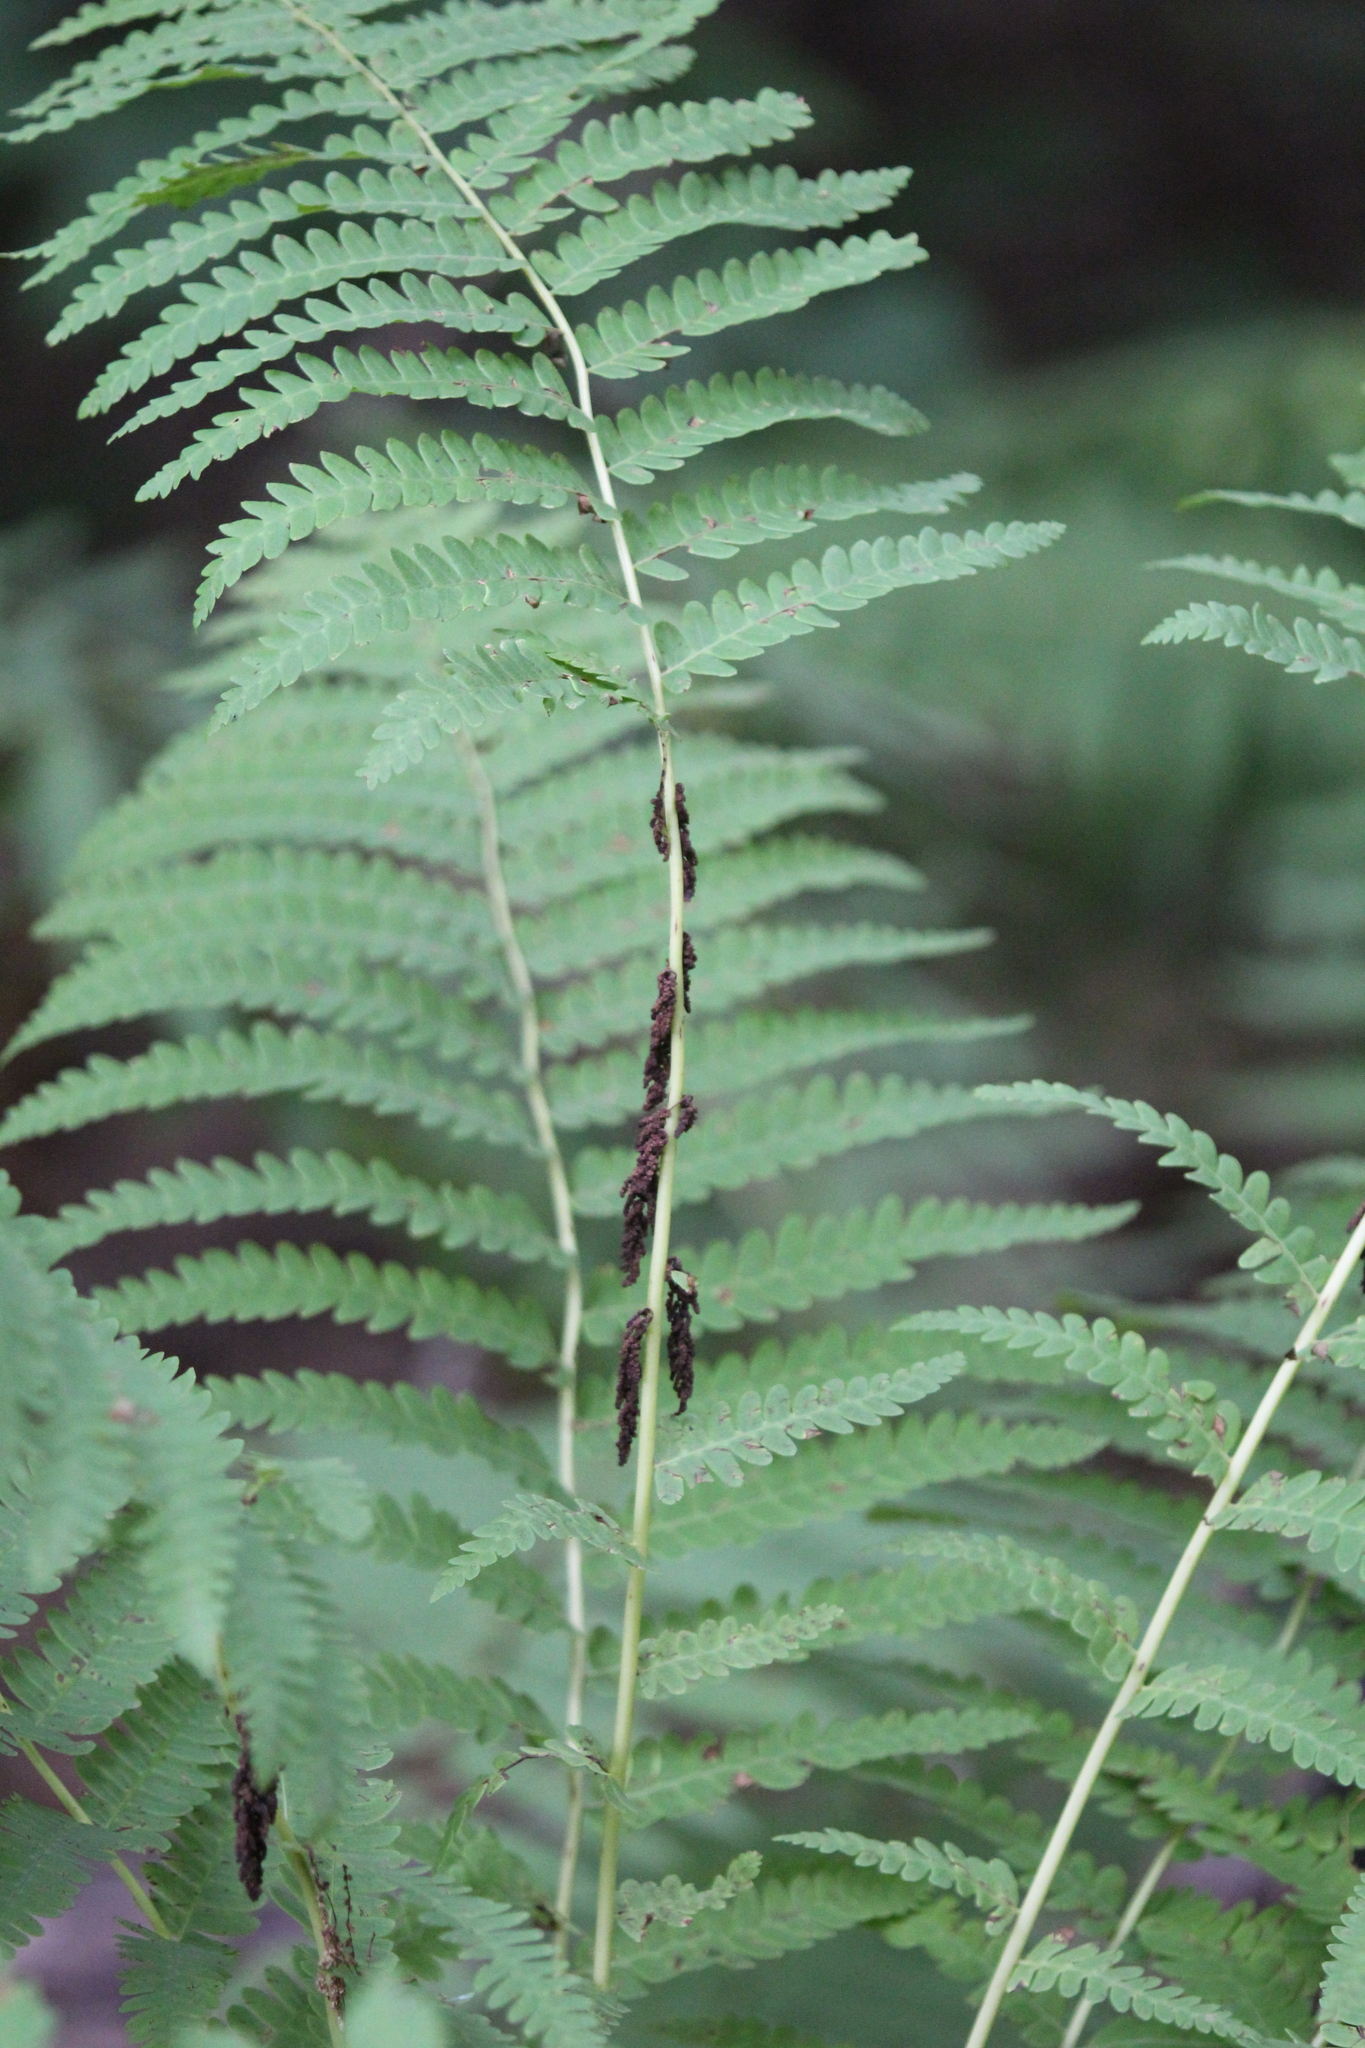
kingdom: Plantae
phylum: Tracheophyta
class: Polypodiopsida
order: Osmundales
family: Osmundaceae
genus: Claytosmunda
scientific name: Claytosmunda claytoniana
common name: Clayton's fern
